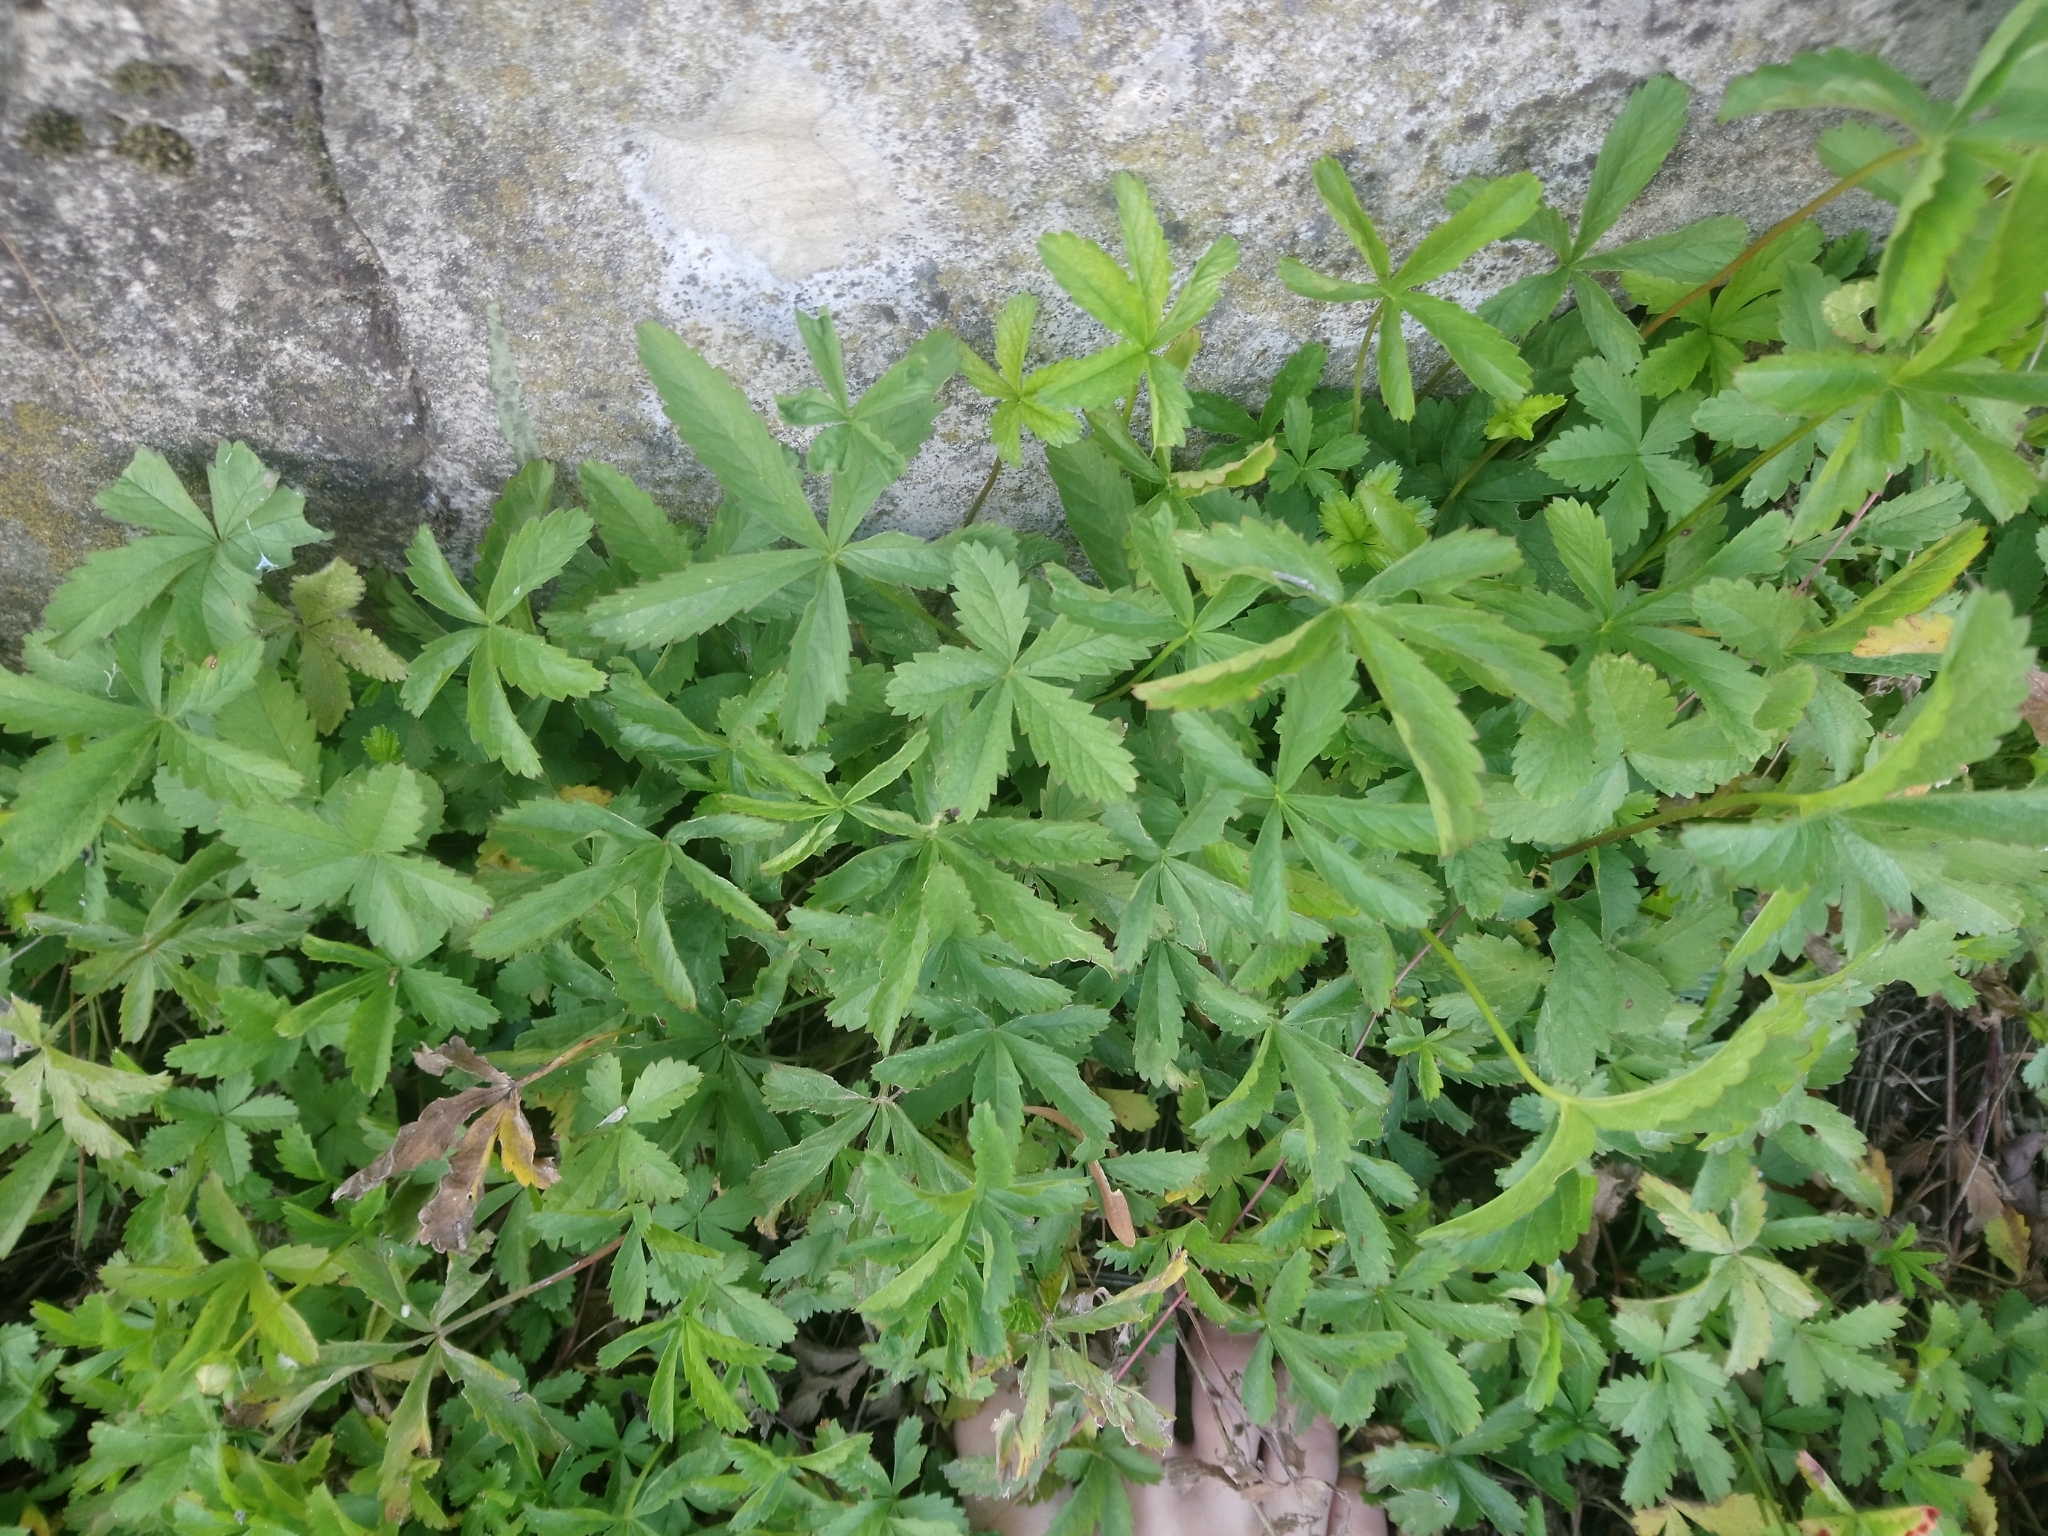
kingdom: Plantae
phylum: Tracheophyta
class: Magnoliopsida
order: Rosales
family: Rosaceae
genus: Potentilla
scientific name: Potentilla reptans
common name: Creeping cinquefoil
